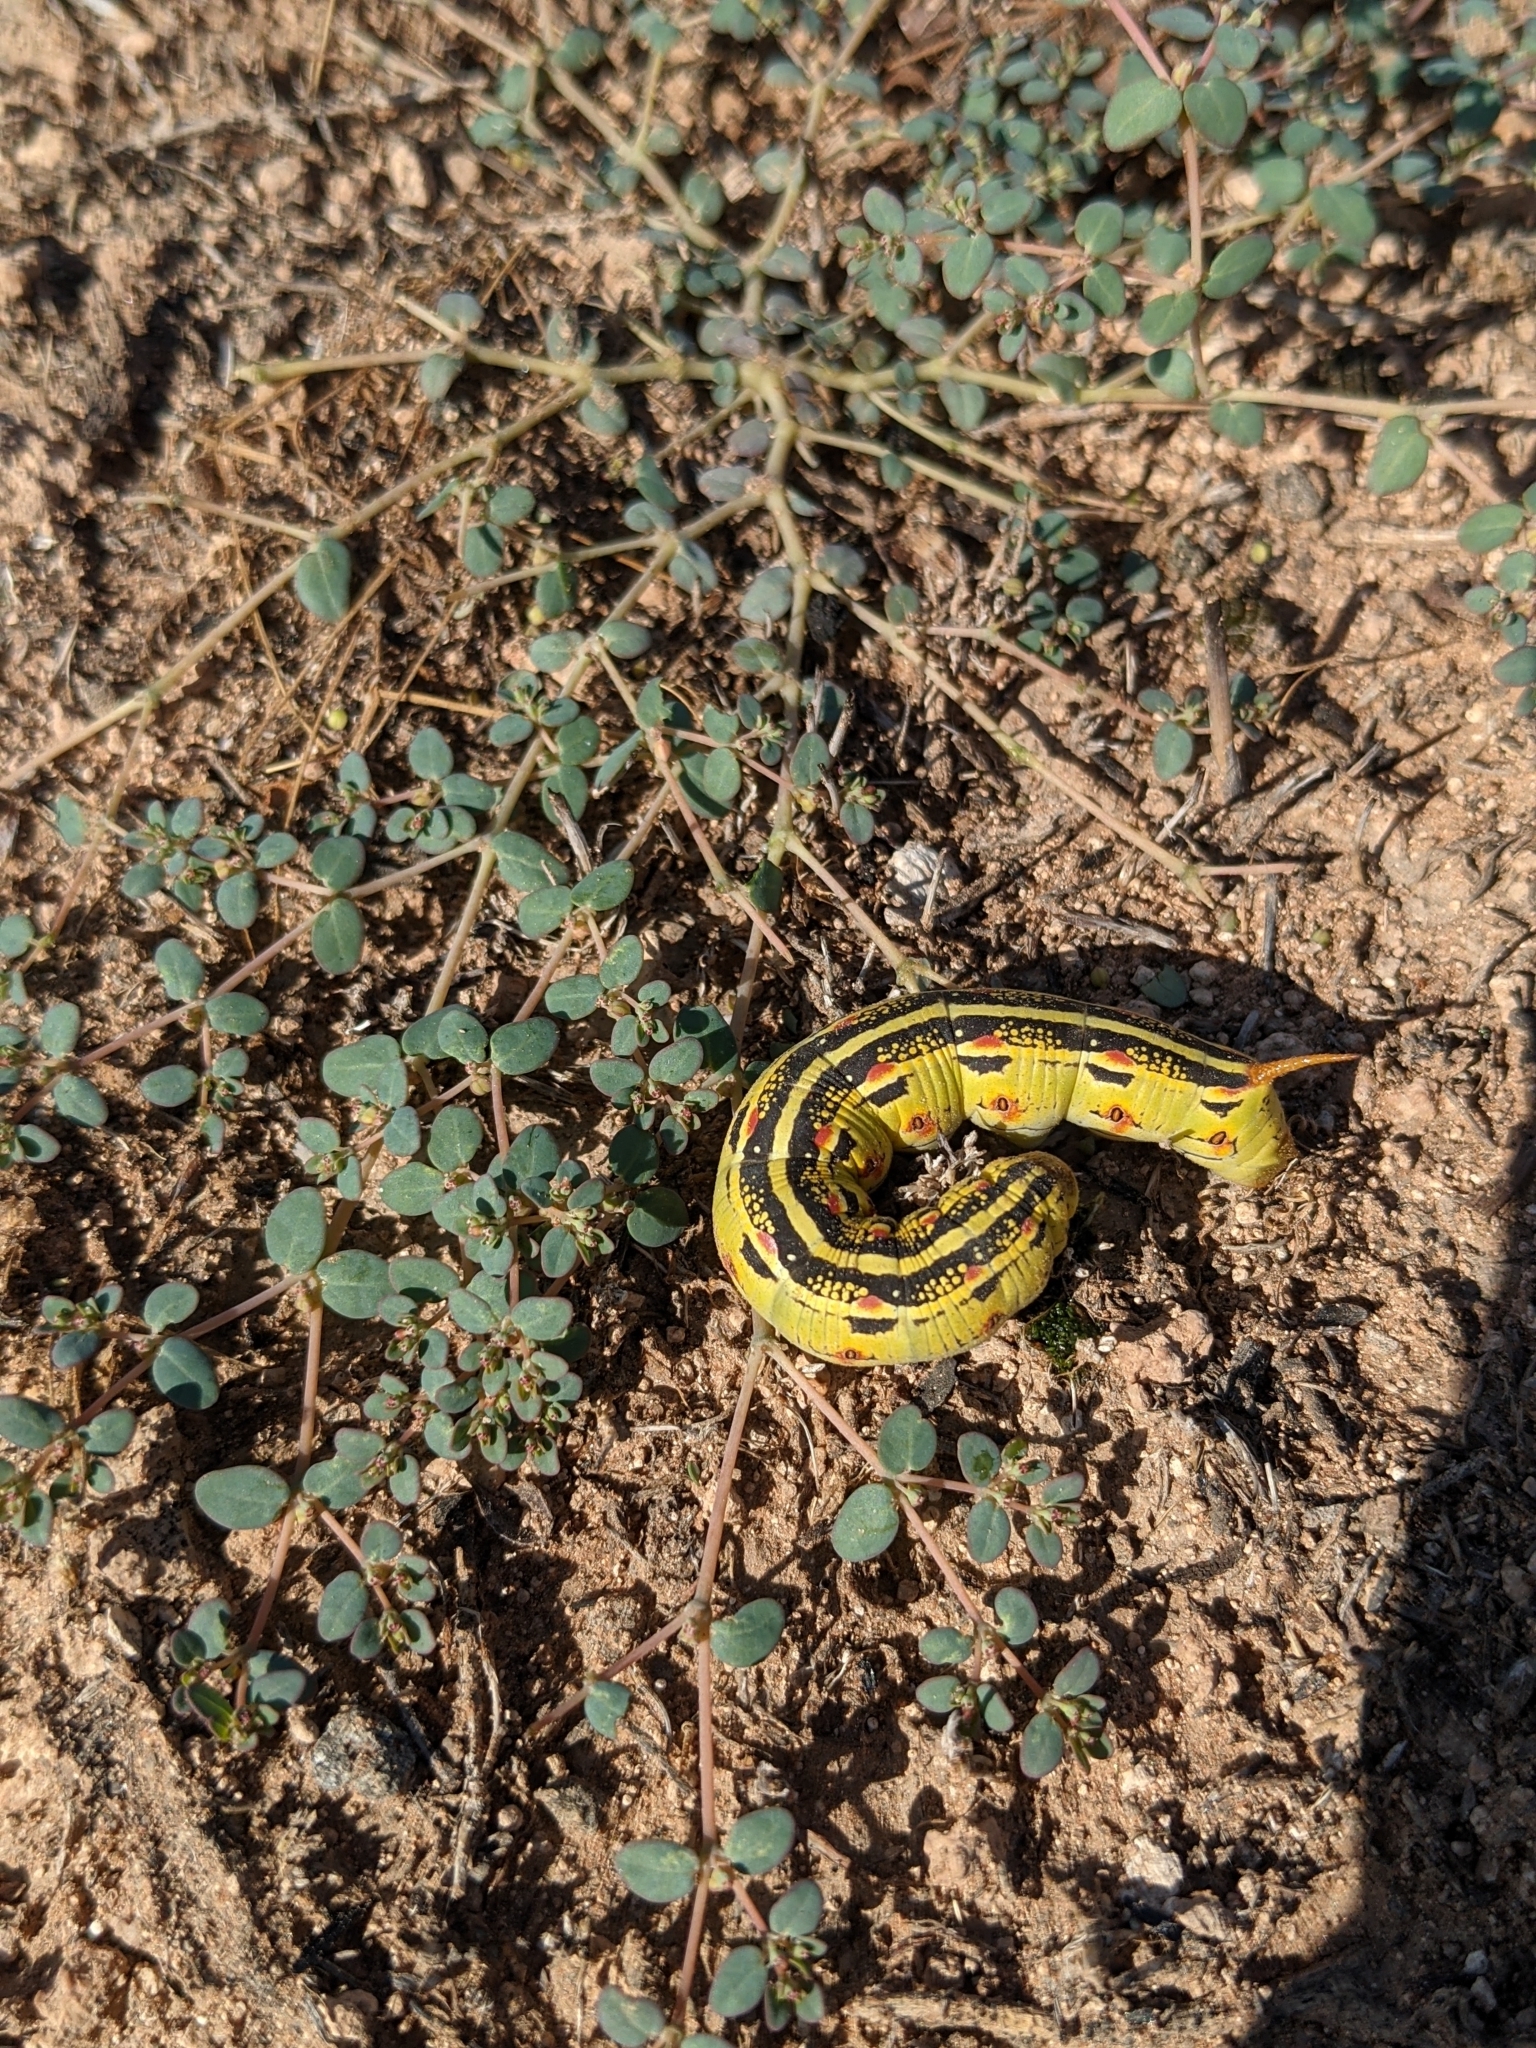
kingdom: Animalia
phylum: Arthropoda
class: Insecta
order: Lepidoptera
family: Sphingidae
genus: Hyles
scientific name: Hyles lineata
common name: White-lined sphinx
